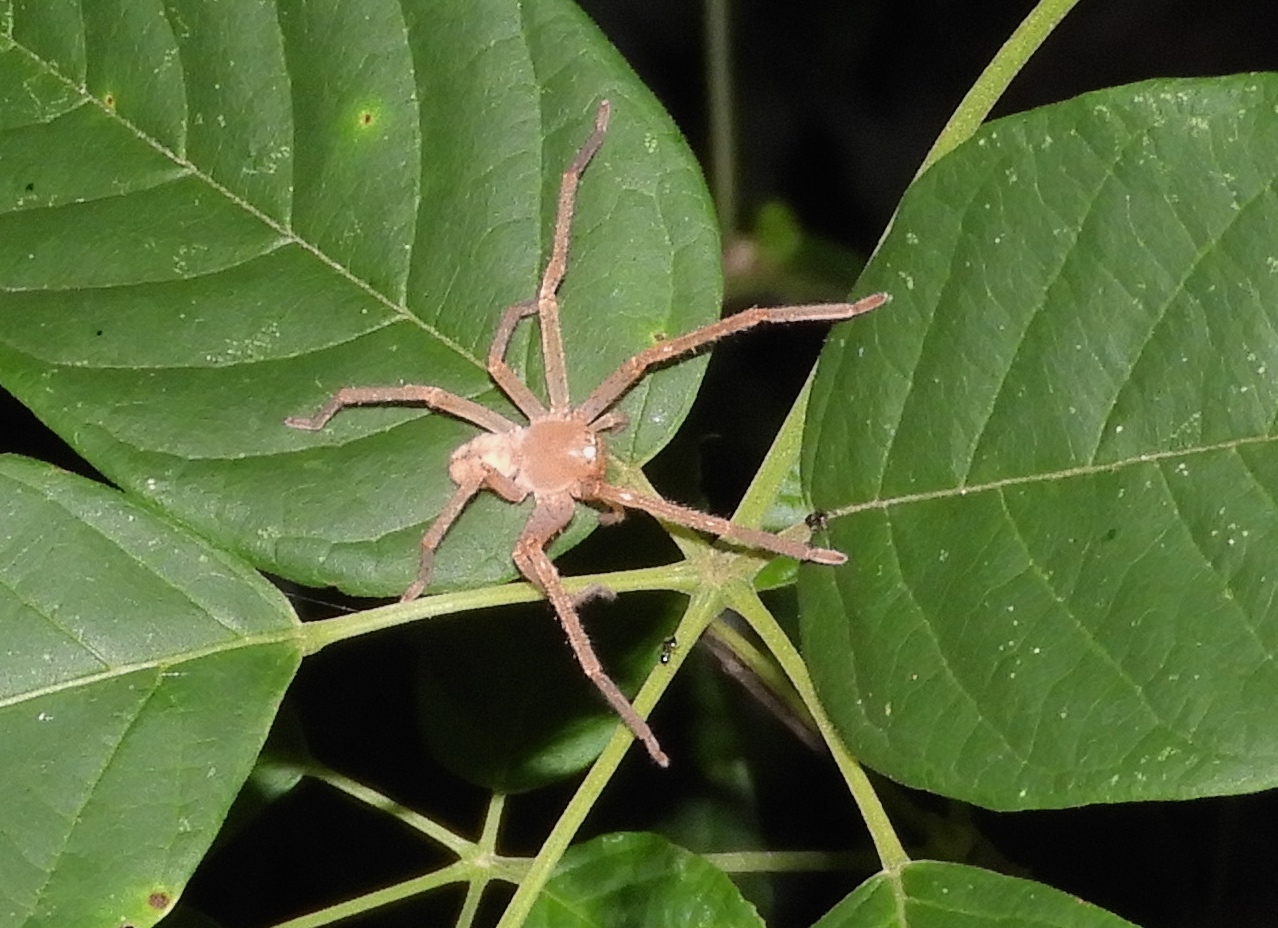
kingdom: Animalia
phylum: Arthropoda
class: Arachnida
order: Araneae
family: Sparassidae
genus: Curicaberis
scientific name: Curicaberis
